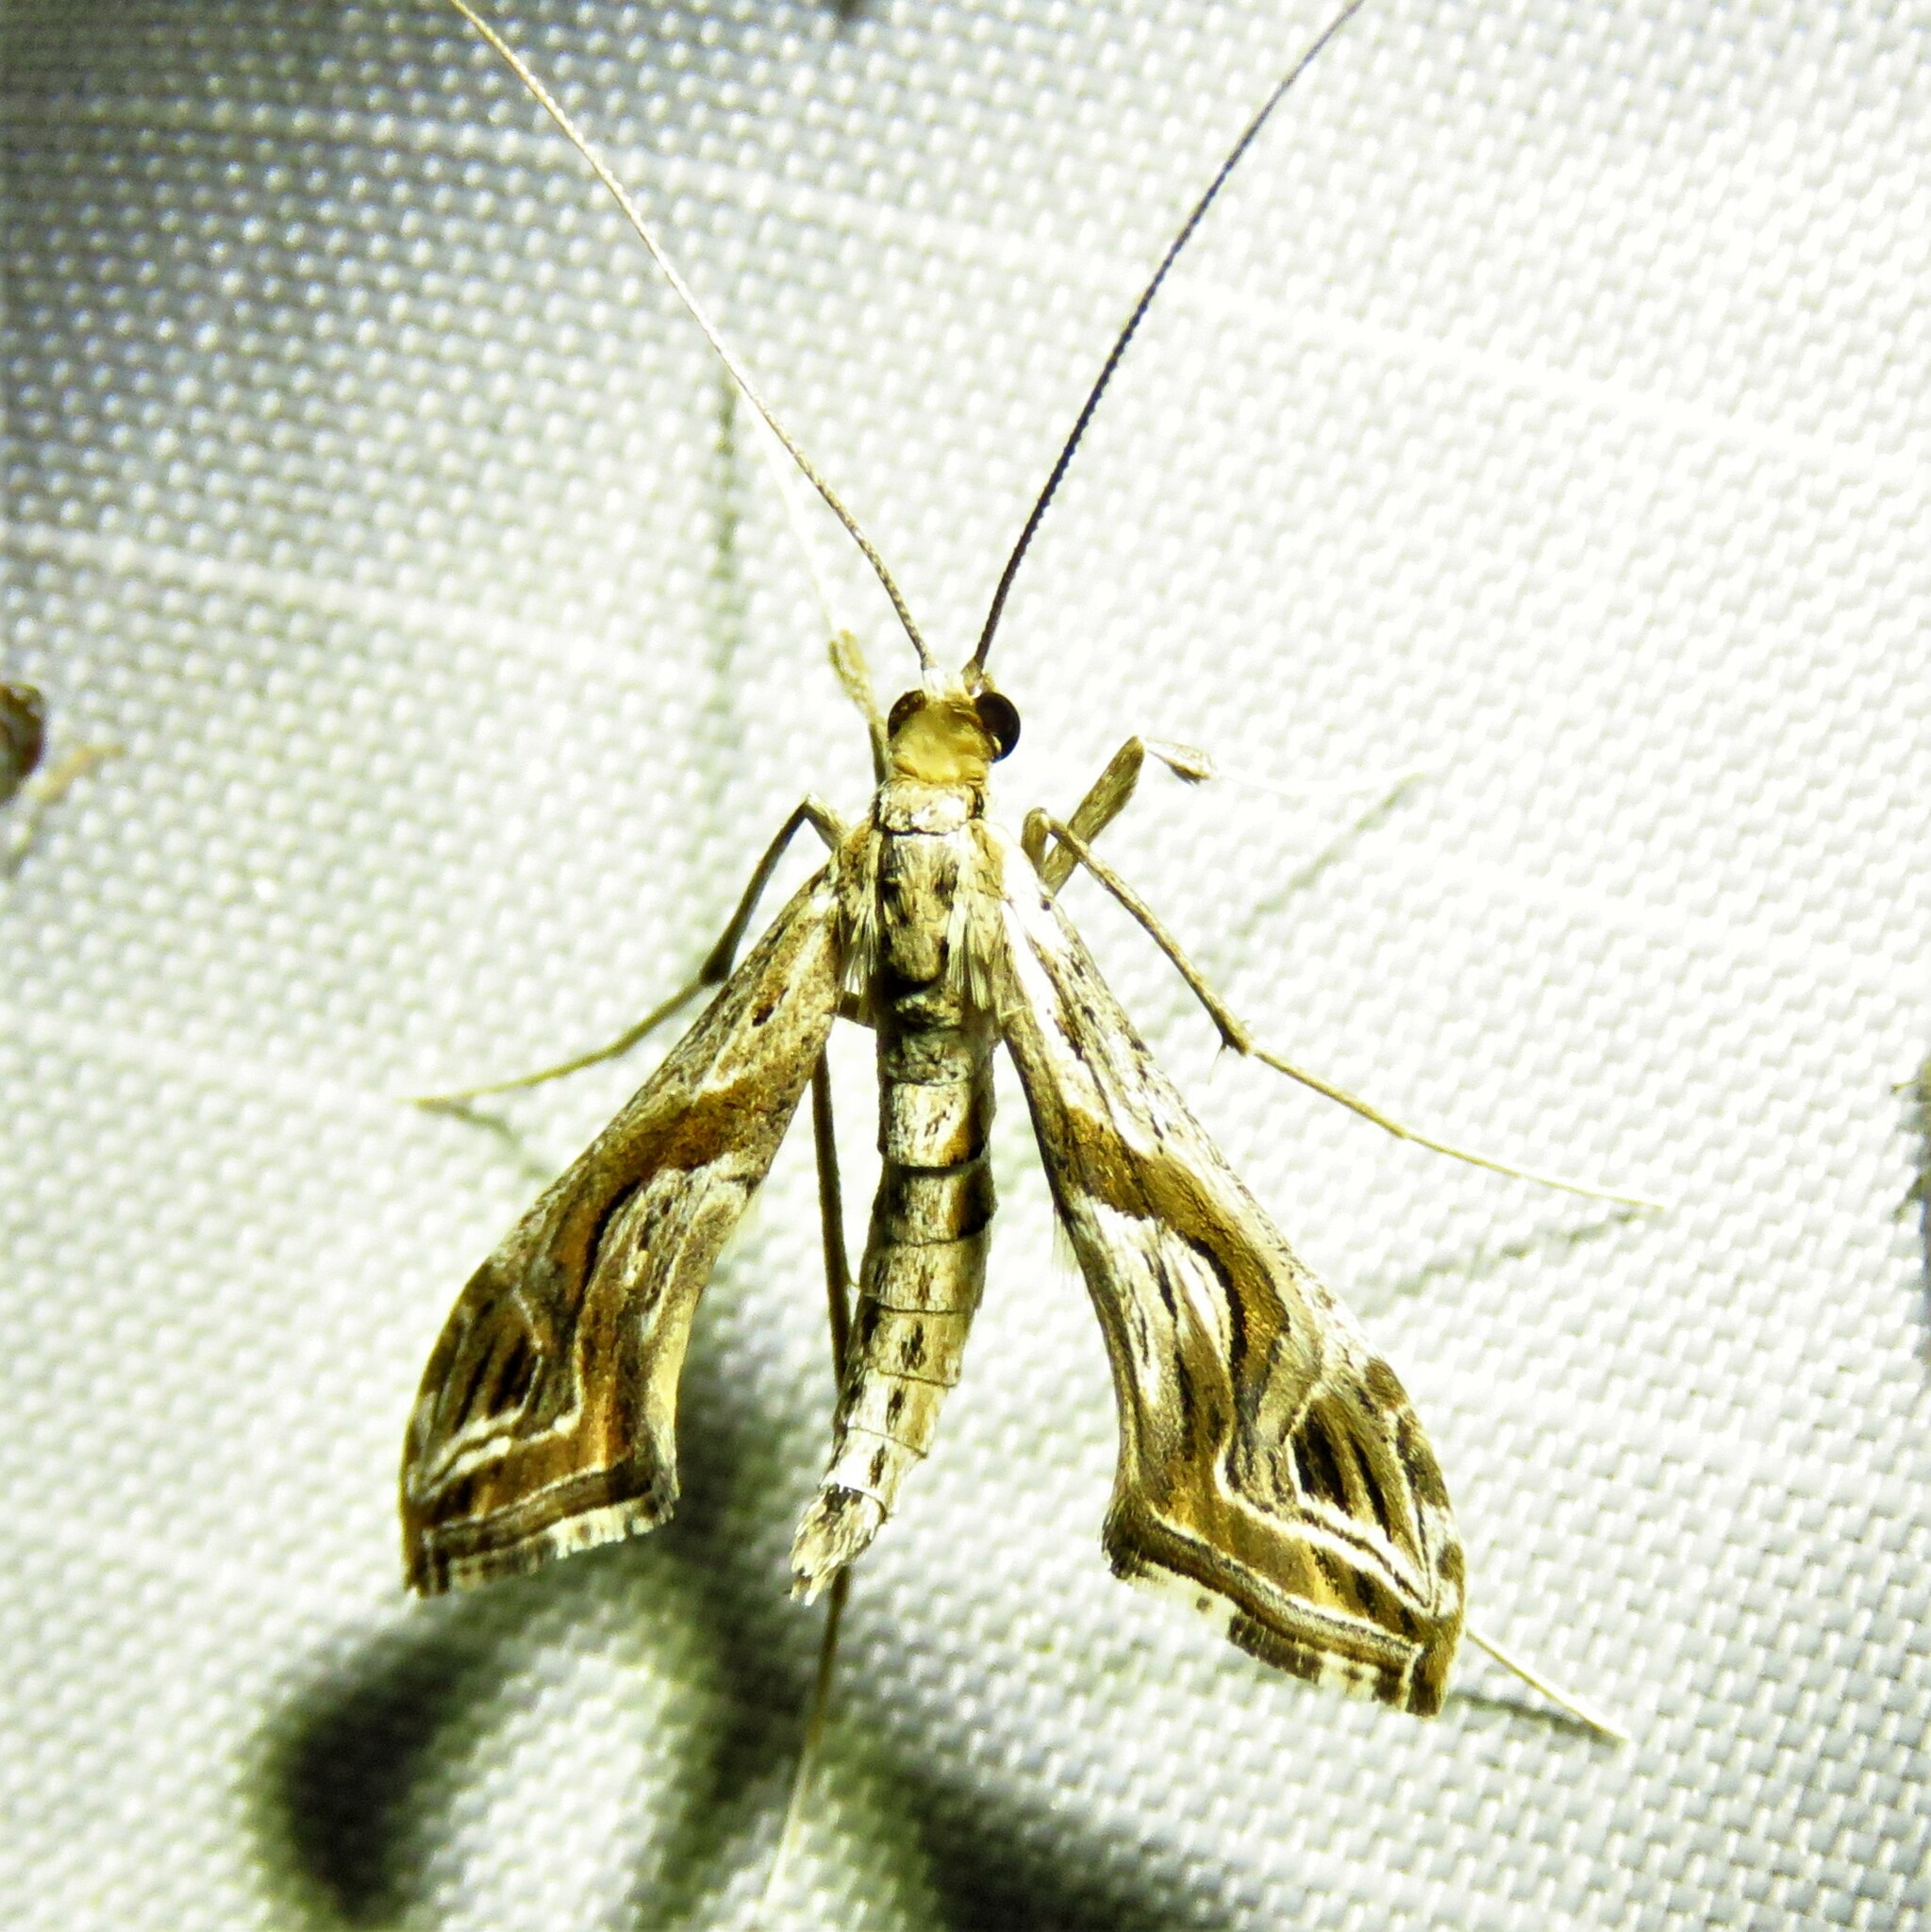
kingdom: Animalia
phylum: Arthropoda
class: Insecta
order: Lepidoptera
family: Crambidae
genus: Lineodes
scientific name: Lineodes integra
